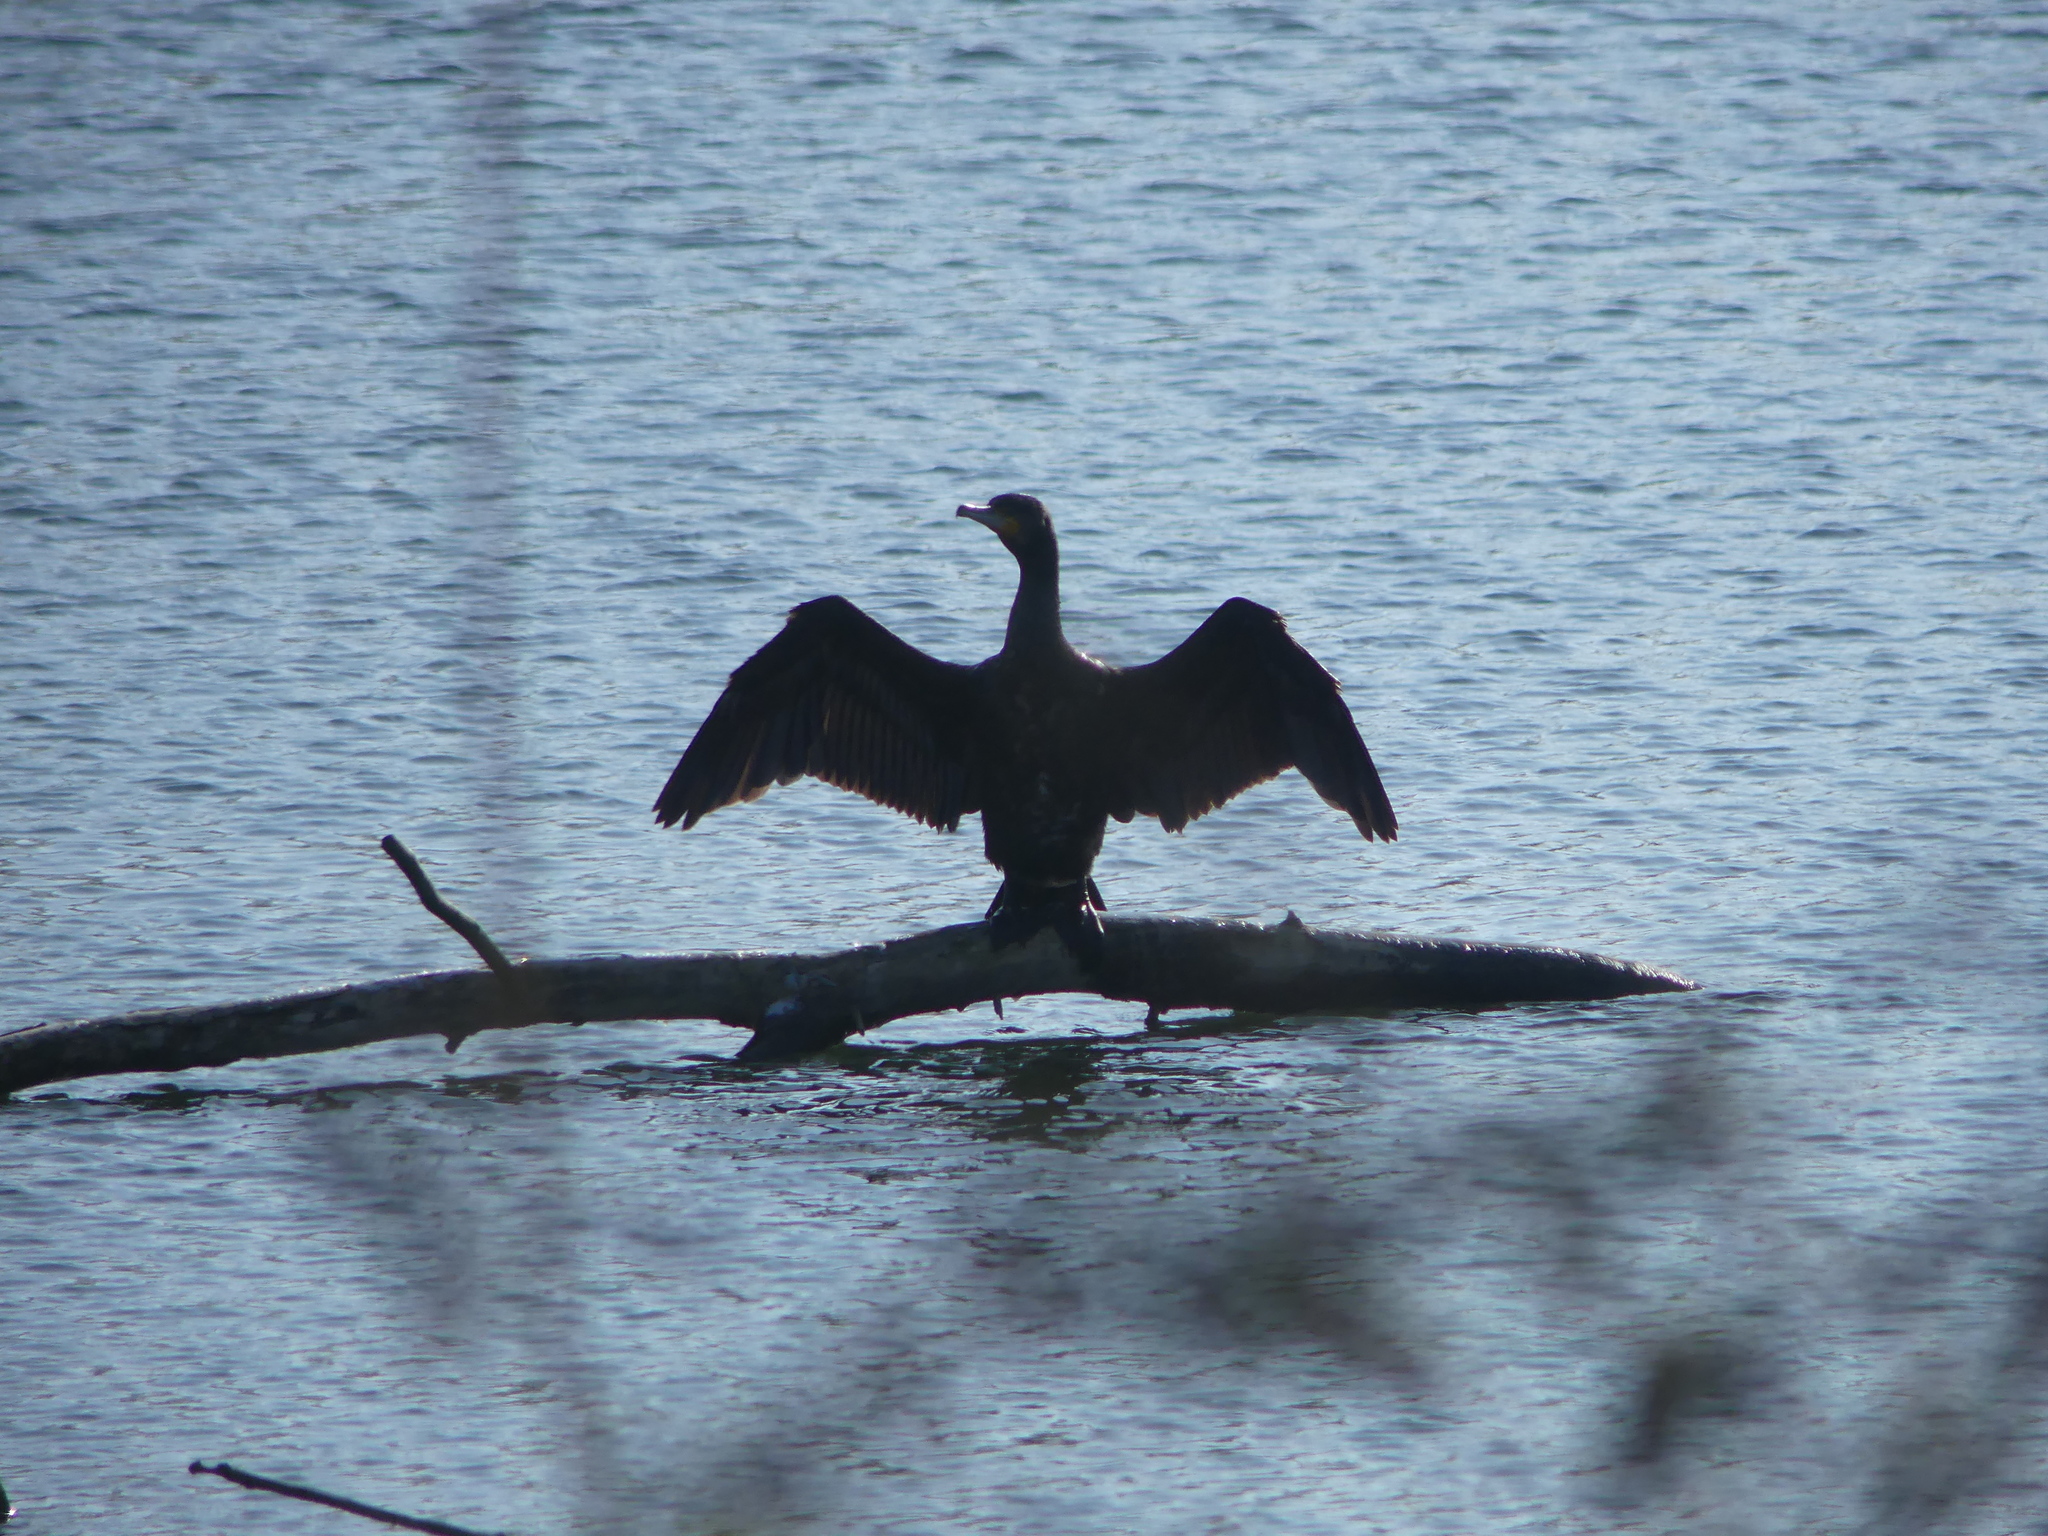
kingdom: Animalia
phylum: Chordata
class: Aves
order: Suliformes
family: Phalacrocoracidae
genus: Phalacrocorax
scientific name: Phalacrocorax carbo
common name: Great cormorant
